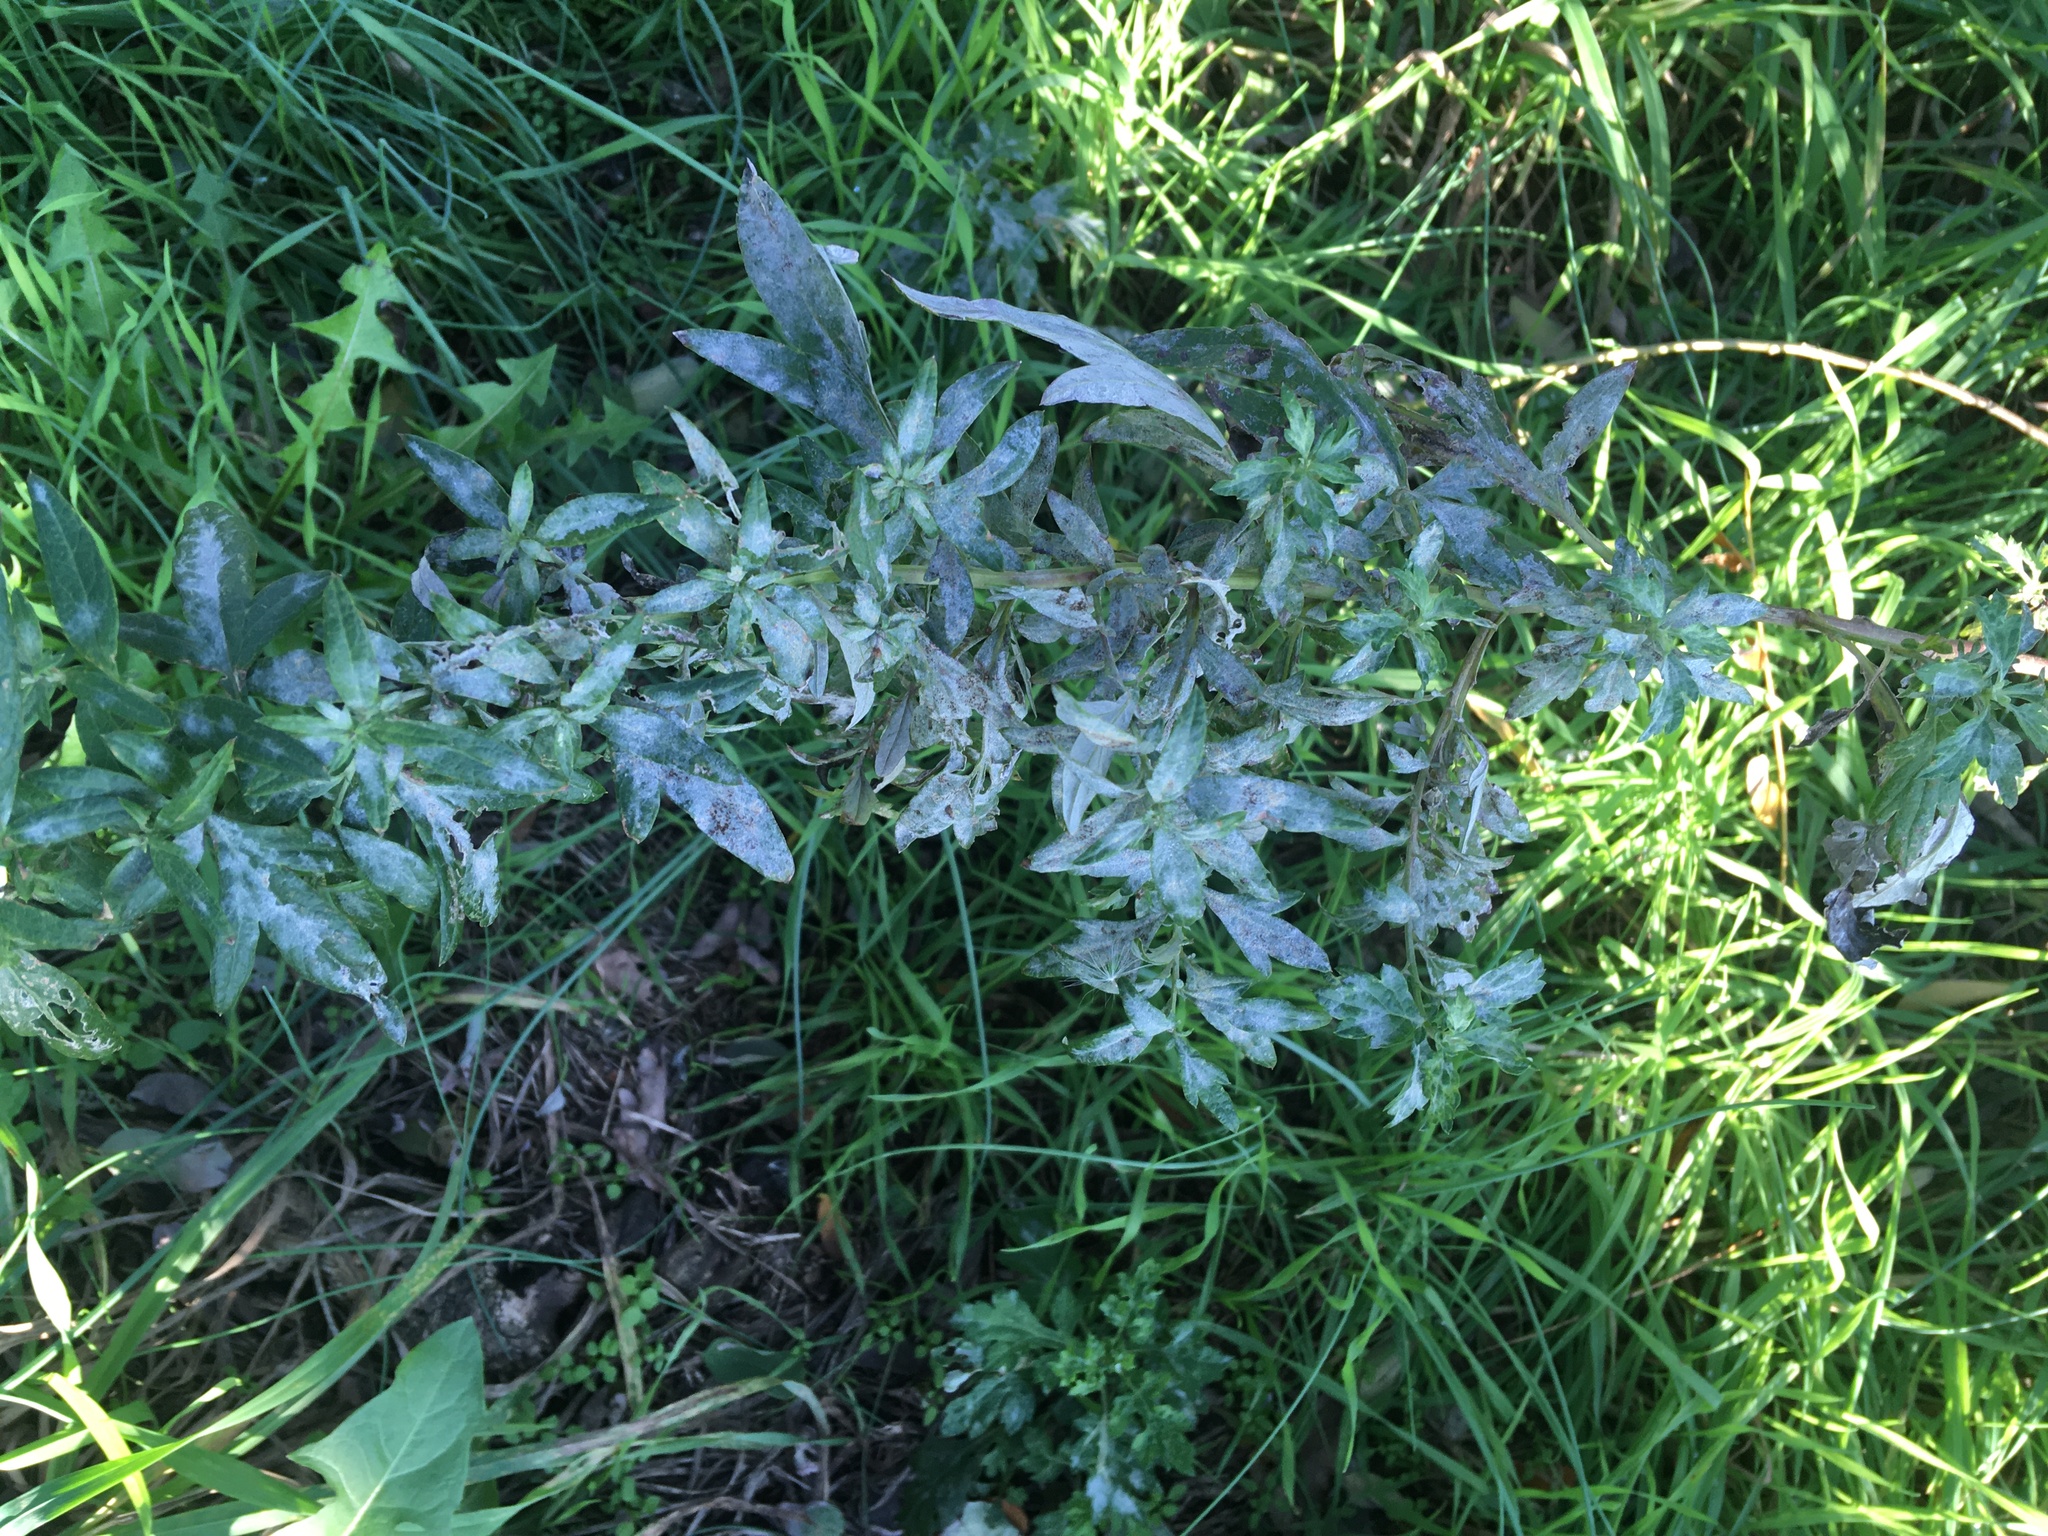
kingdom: Plantae
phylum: Tracheophyta
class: Magnoliopsida
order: Asterales
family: Asteraceae
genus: Artemisia
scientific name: Artemisia vulgaris
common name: Mugwort
